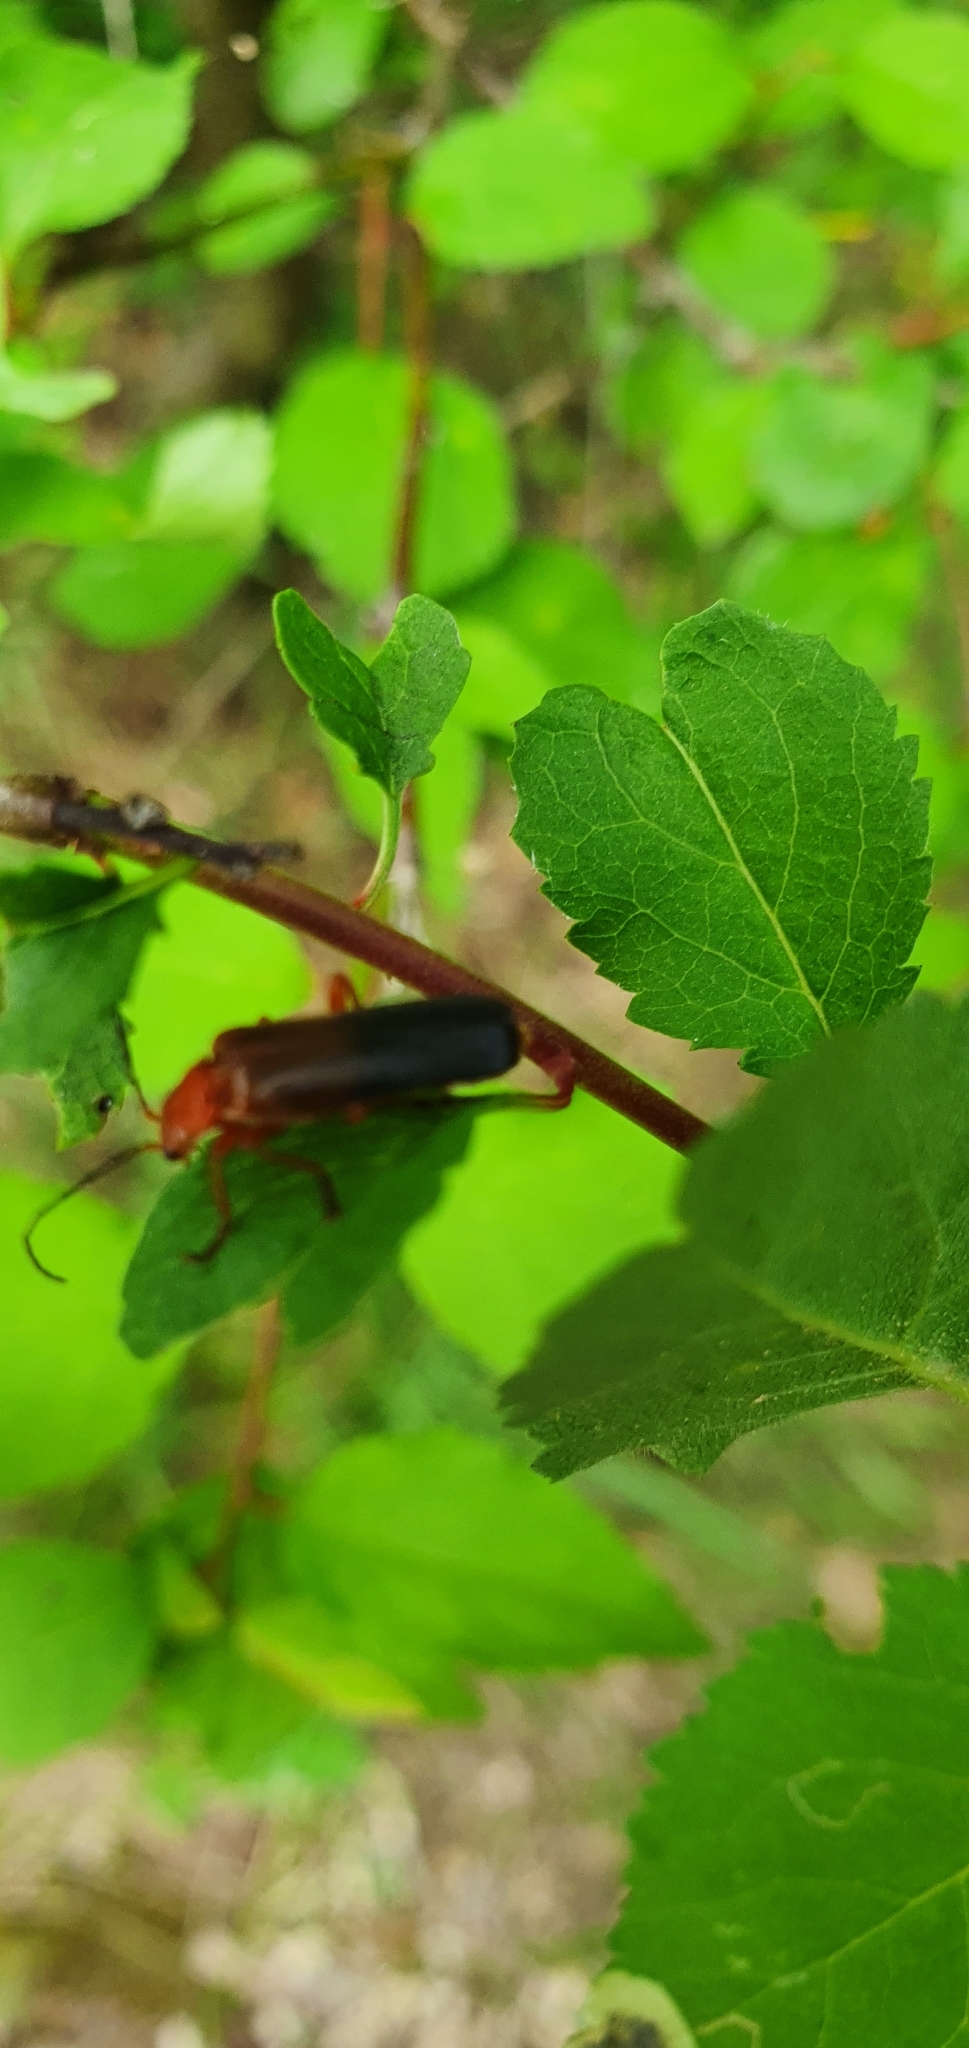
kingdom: Animalia
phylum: Arthropoda
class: Insecta
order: Coleoptera
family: Cantharidae
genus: Ancistronycha
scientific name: Ancistronycha erichsonii
